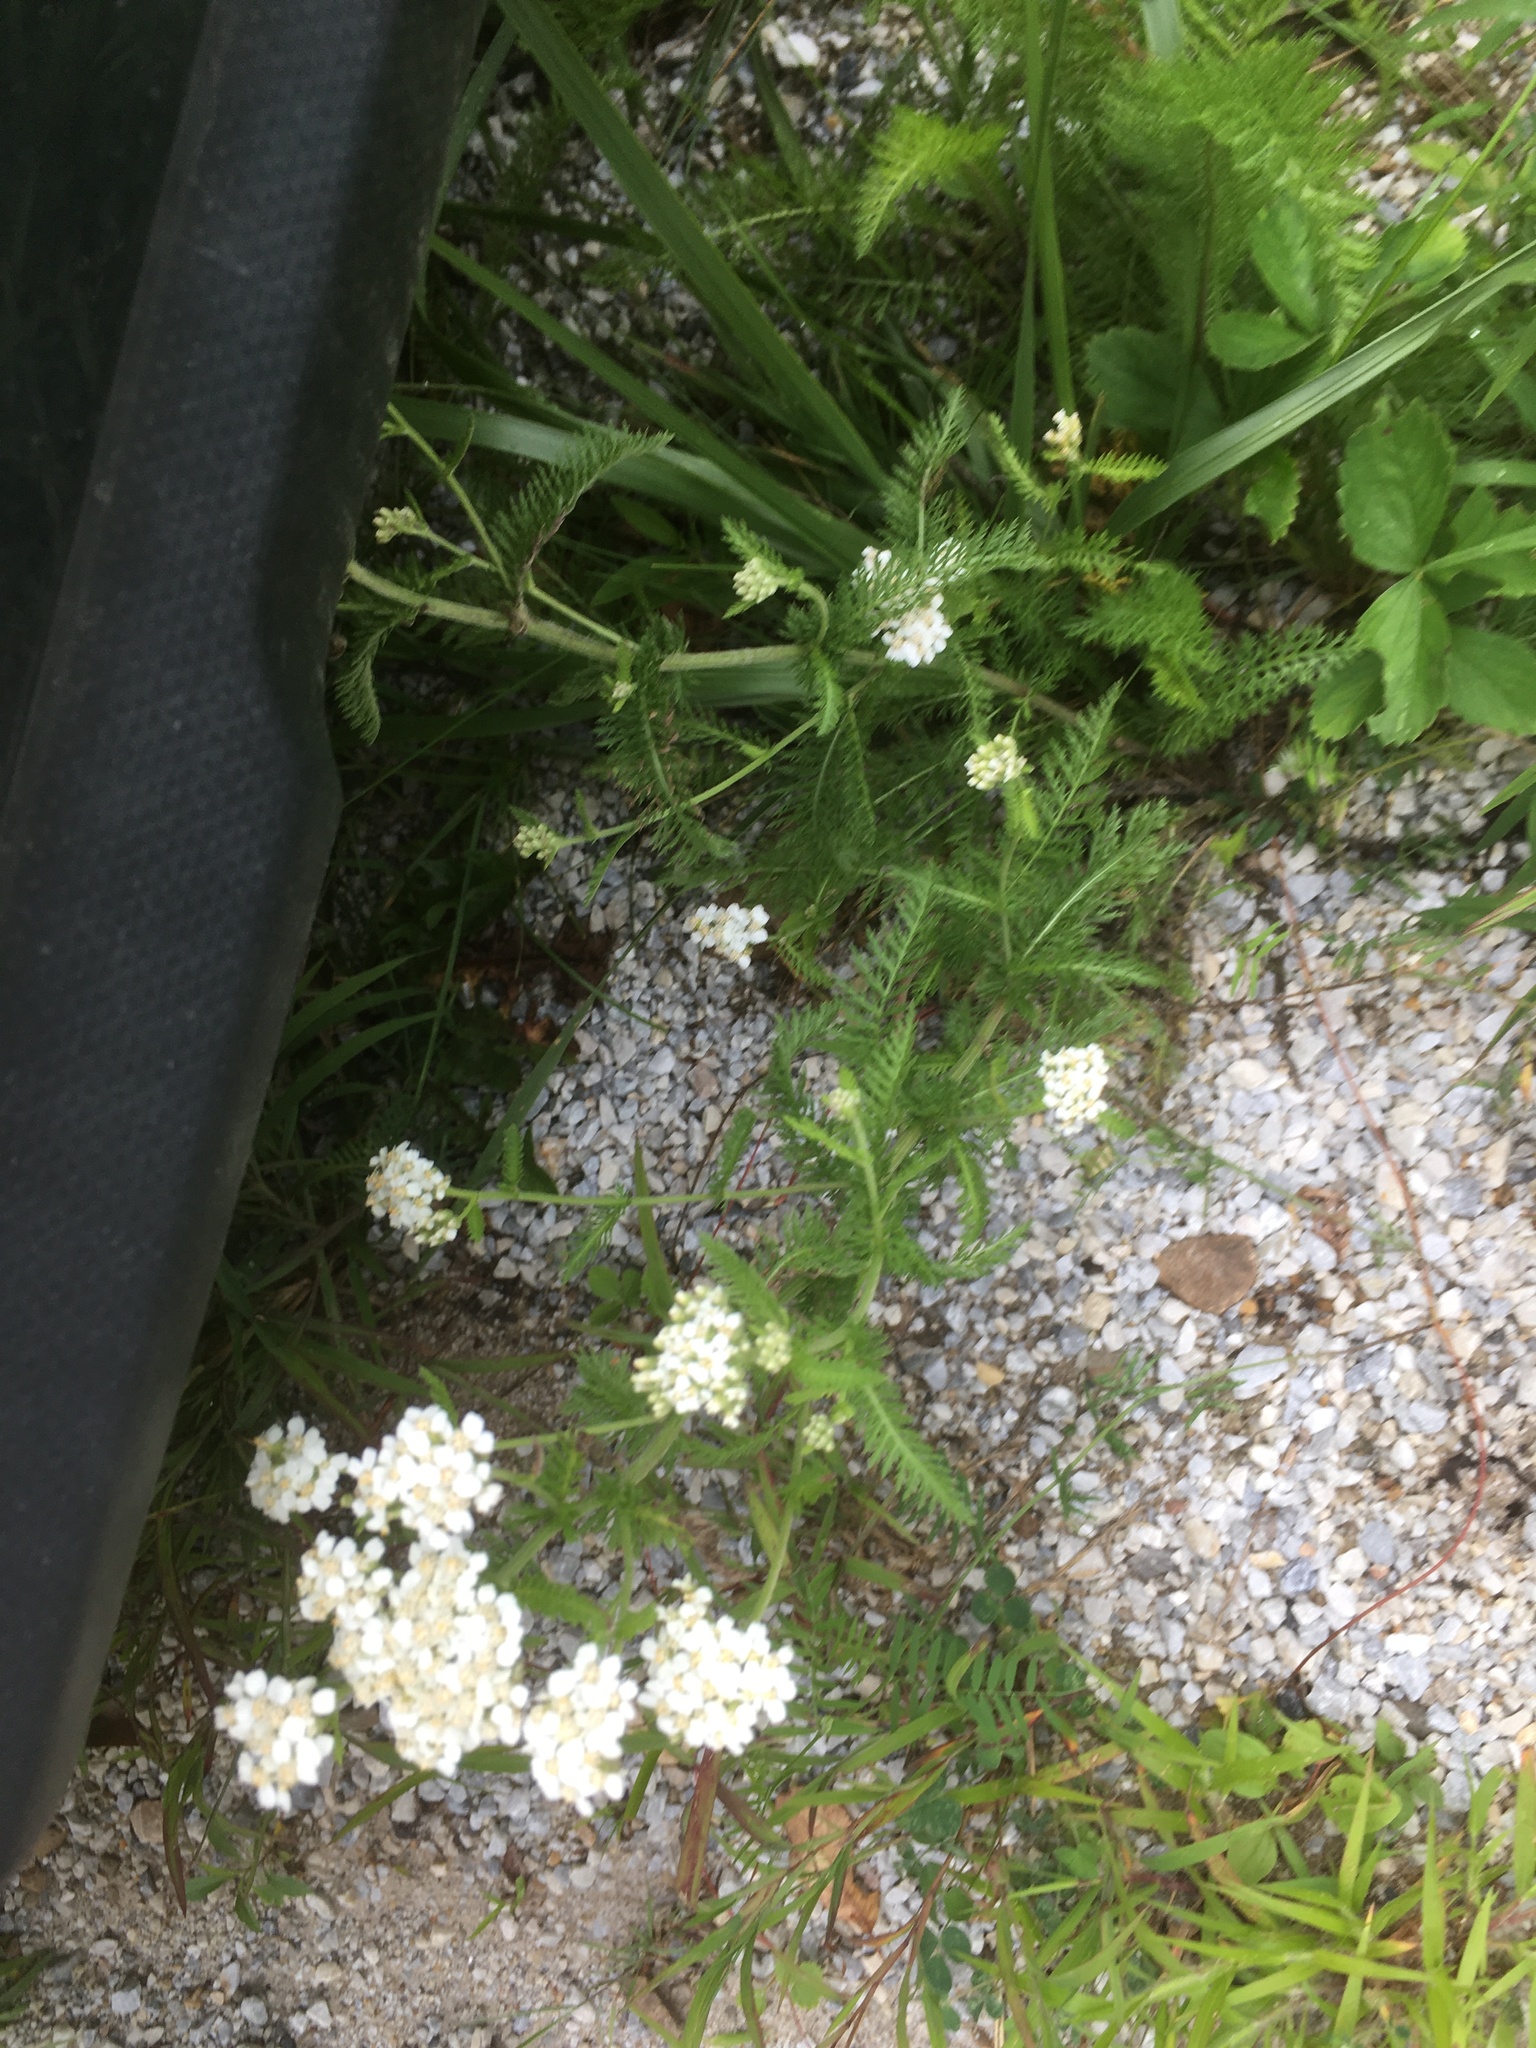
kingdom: Plantae
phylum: Tracheophyta
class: Magnoliopsida
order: Asterales
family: Asteraceae
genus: Achillea
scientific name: Achillea millefolium
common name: Yarrow
